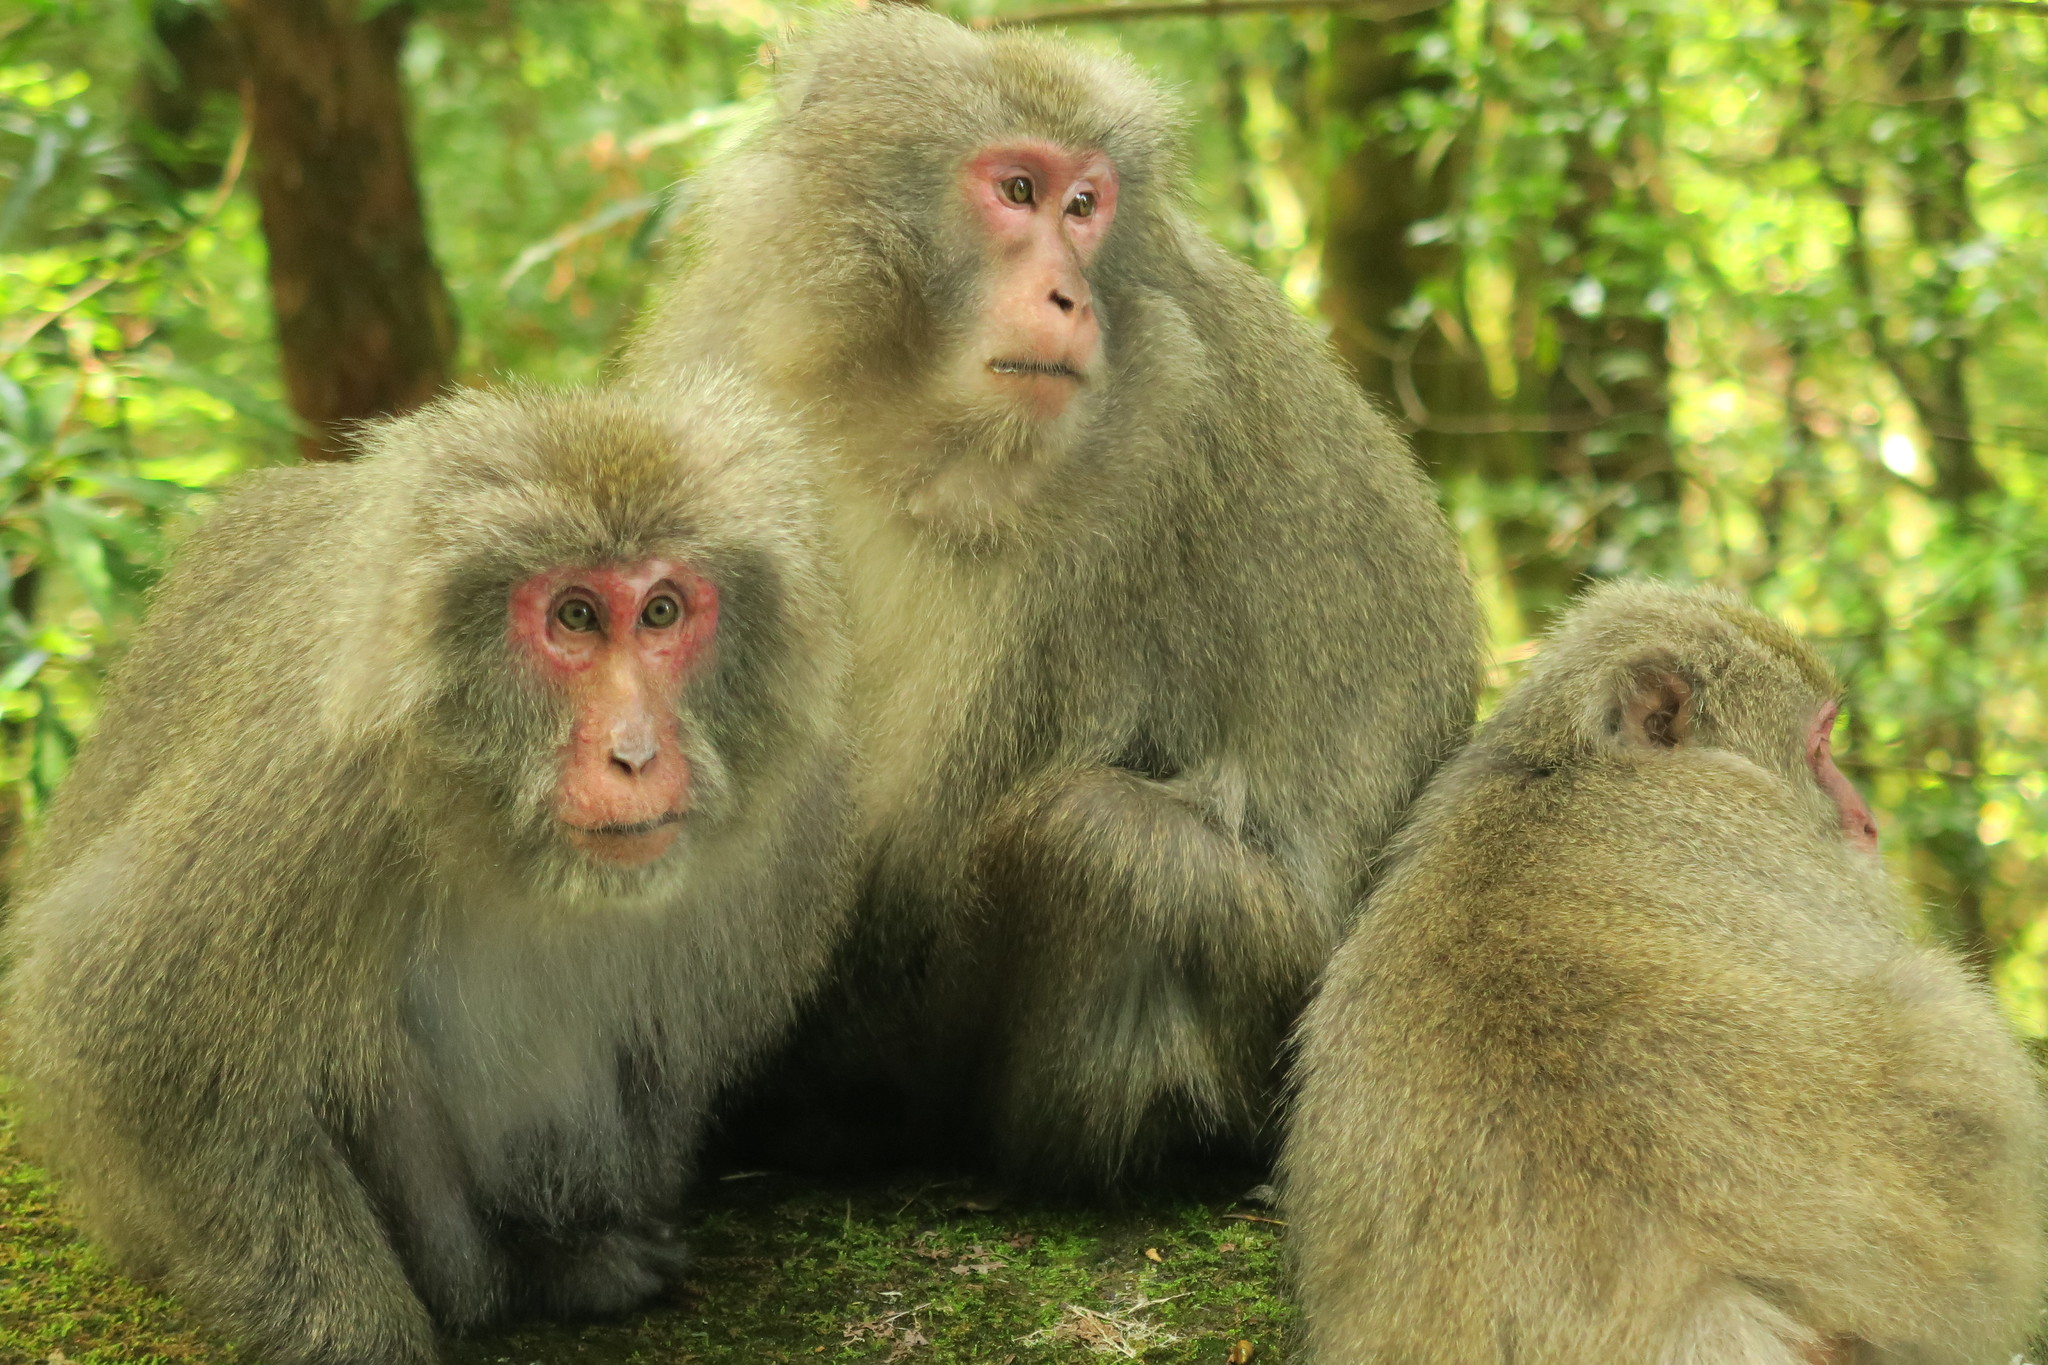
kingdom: Animalia
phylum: Chordata
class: Mammalia
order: Primates
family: Cercopithecidae
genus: Macaca
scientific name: Macaca fuscata
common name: Japanese macaque
